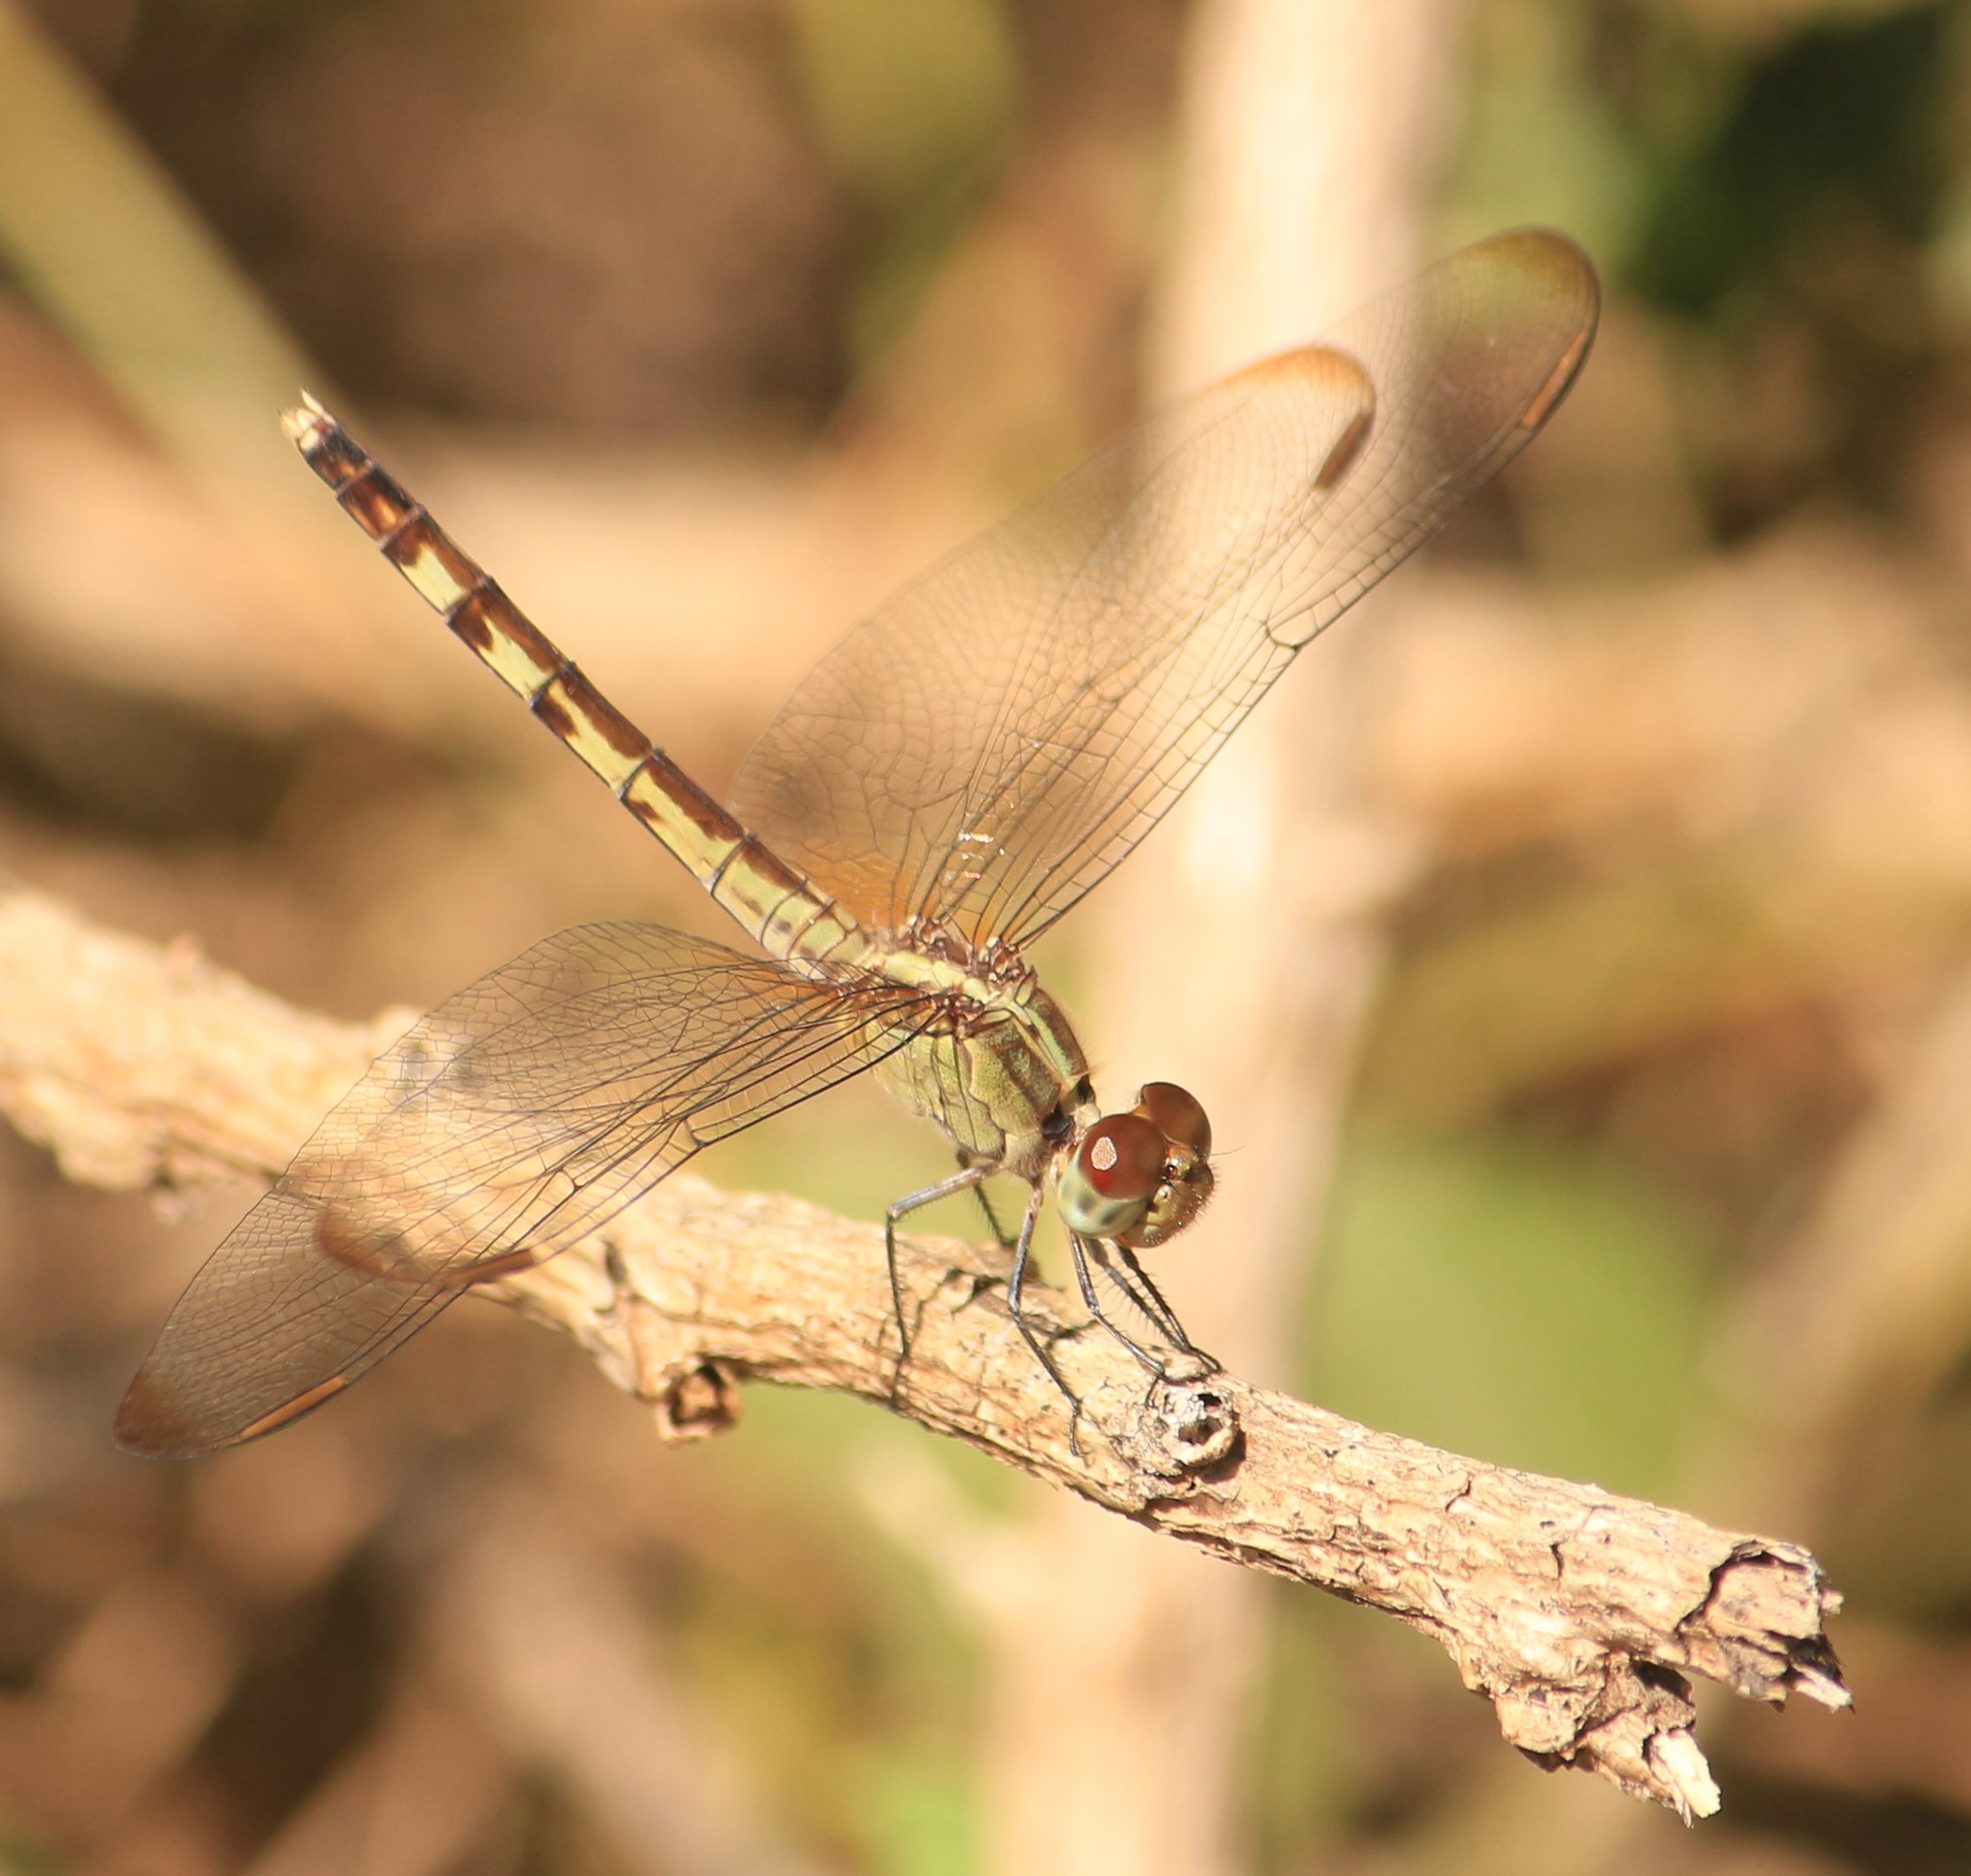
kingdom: Animalia
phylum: Arthropoda
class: Insecta
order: Odonata
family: Libellulidae
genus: Erythrodiplax
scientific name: Erythrodiplax umbrata
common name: Band-winged dragonlet
